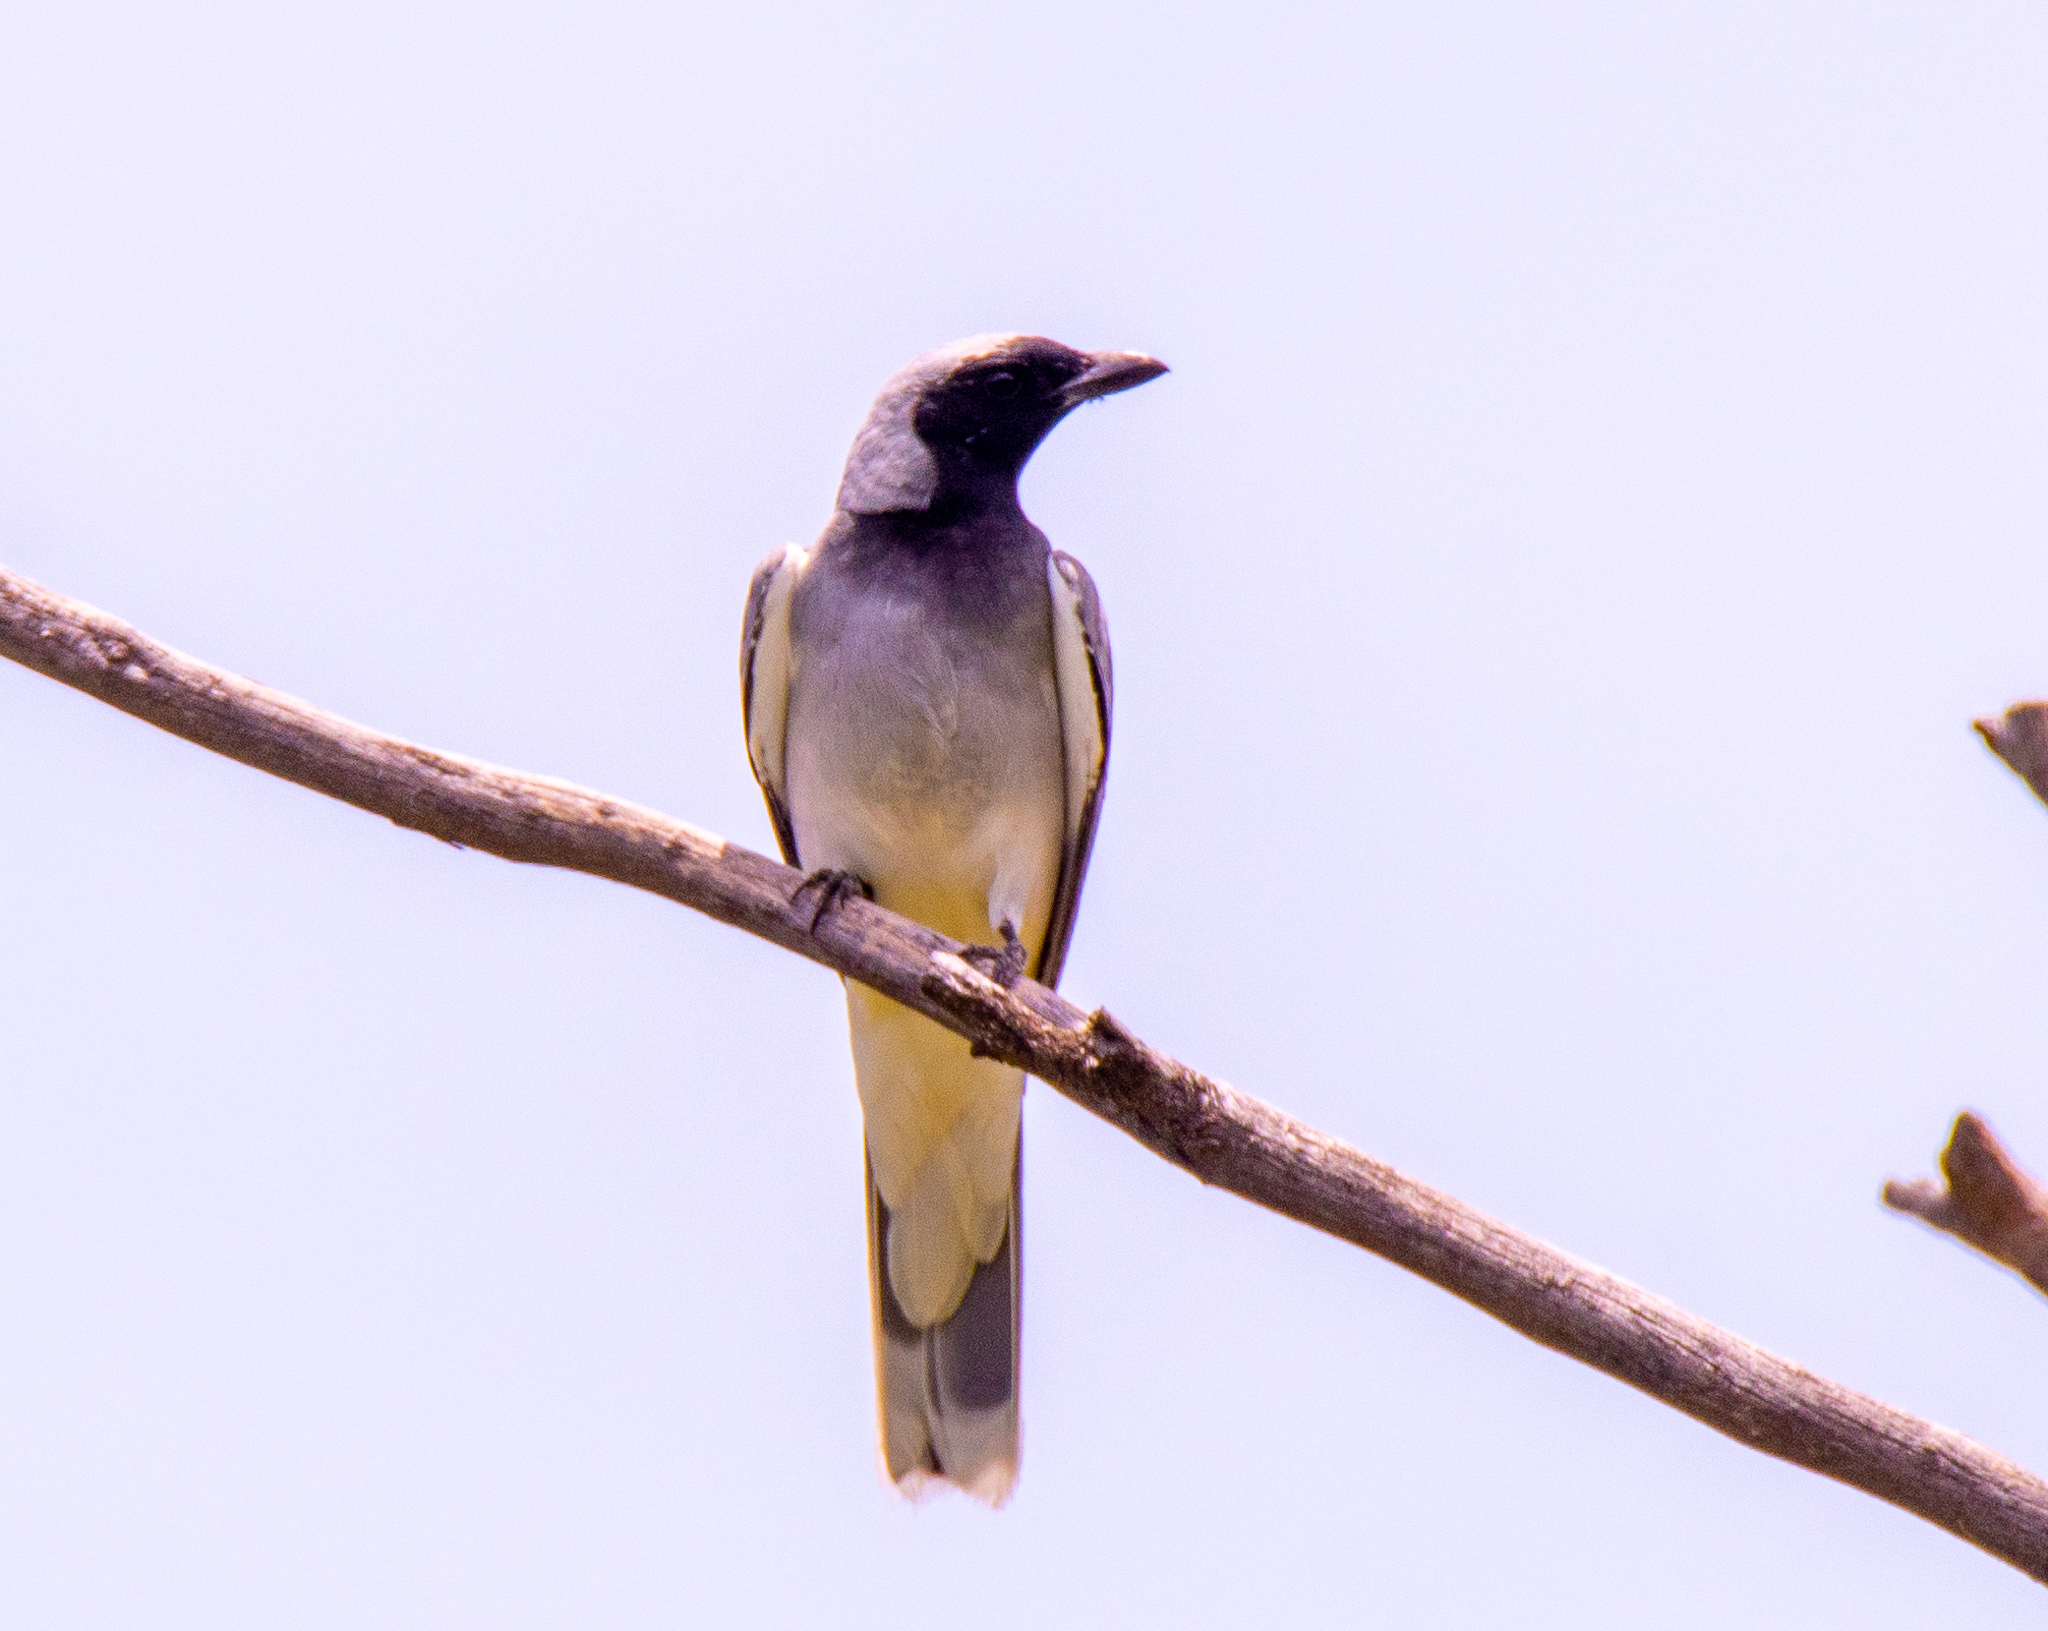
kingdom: Animalia
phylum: Chordata
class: Aves
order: Passeriformes
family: Campephagidae
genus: Coracina
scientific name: Coracina novaehollandiae
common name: Black-faced cuckooshrike
